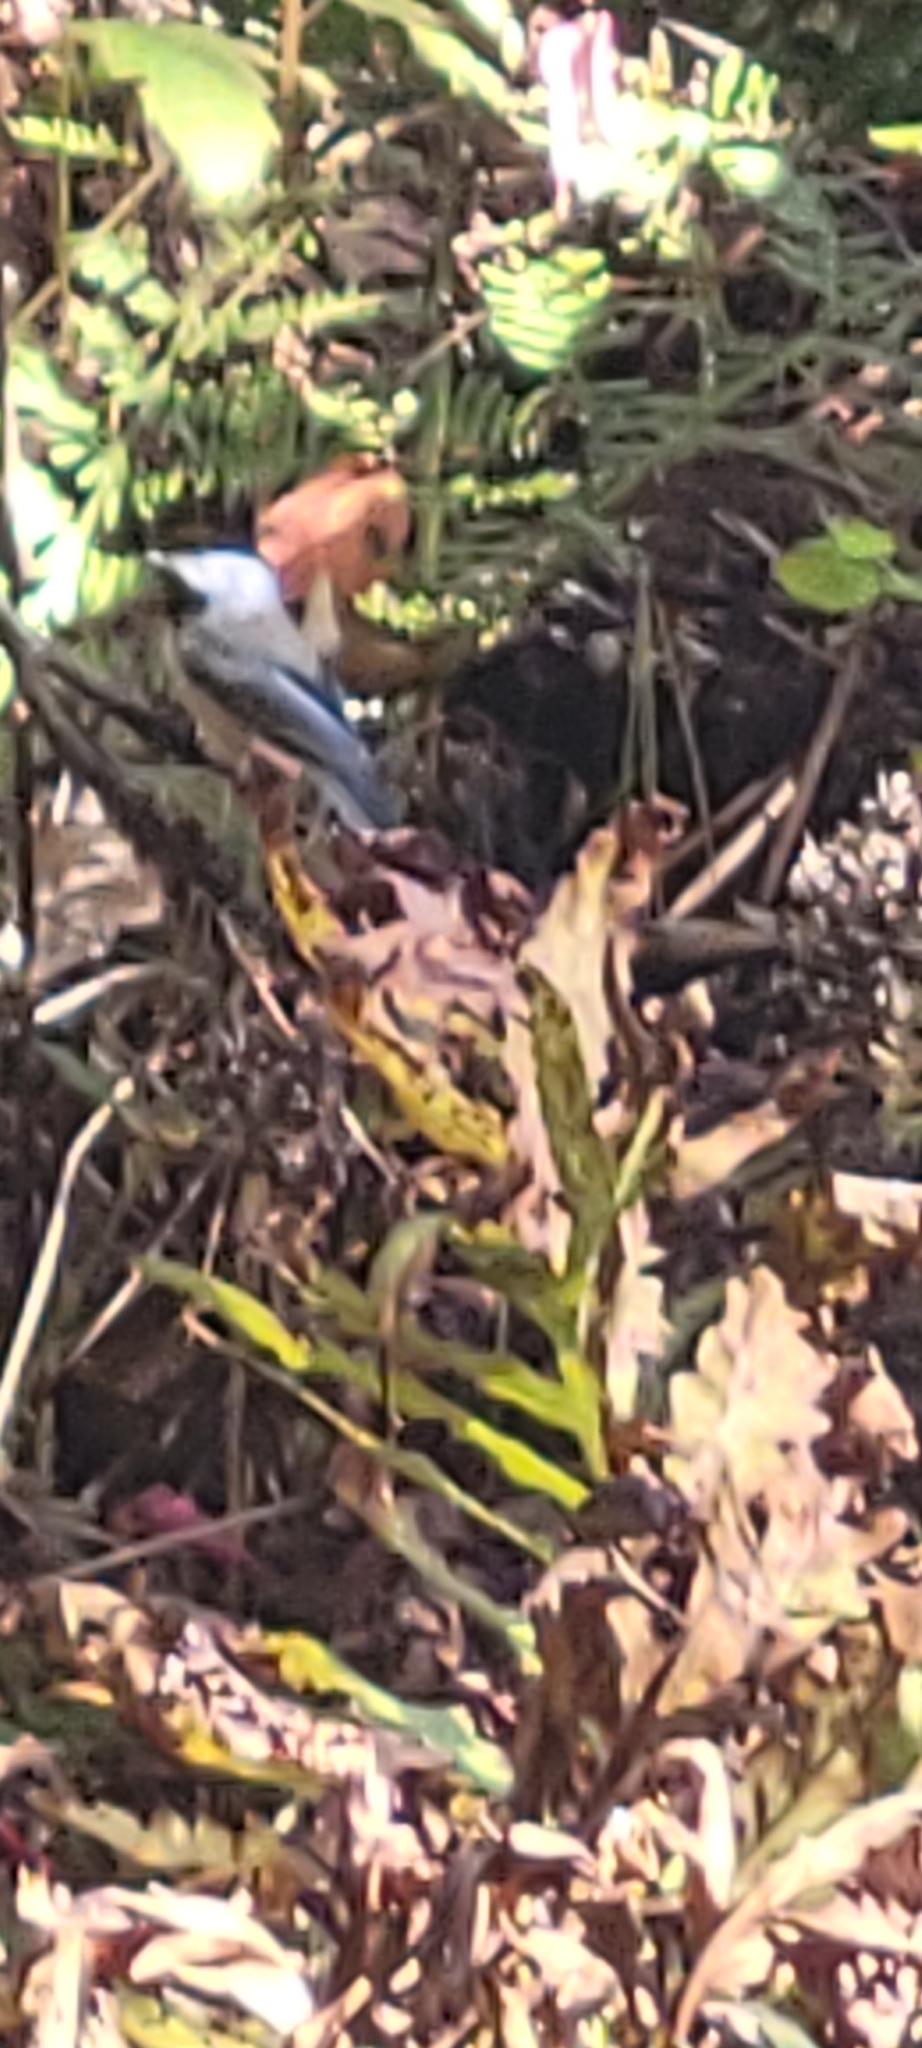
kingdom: Animalia
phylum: Chordata
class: Aves
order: Passeriformes
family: Paridae
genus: Poecile
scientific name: Poecile atricapillus
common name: Black-capped chickadee
